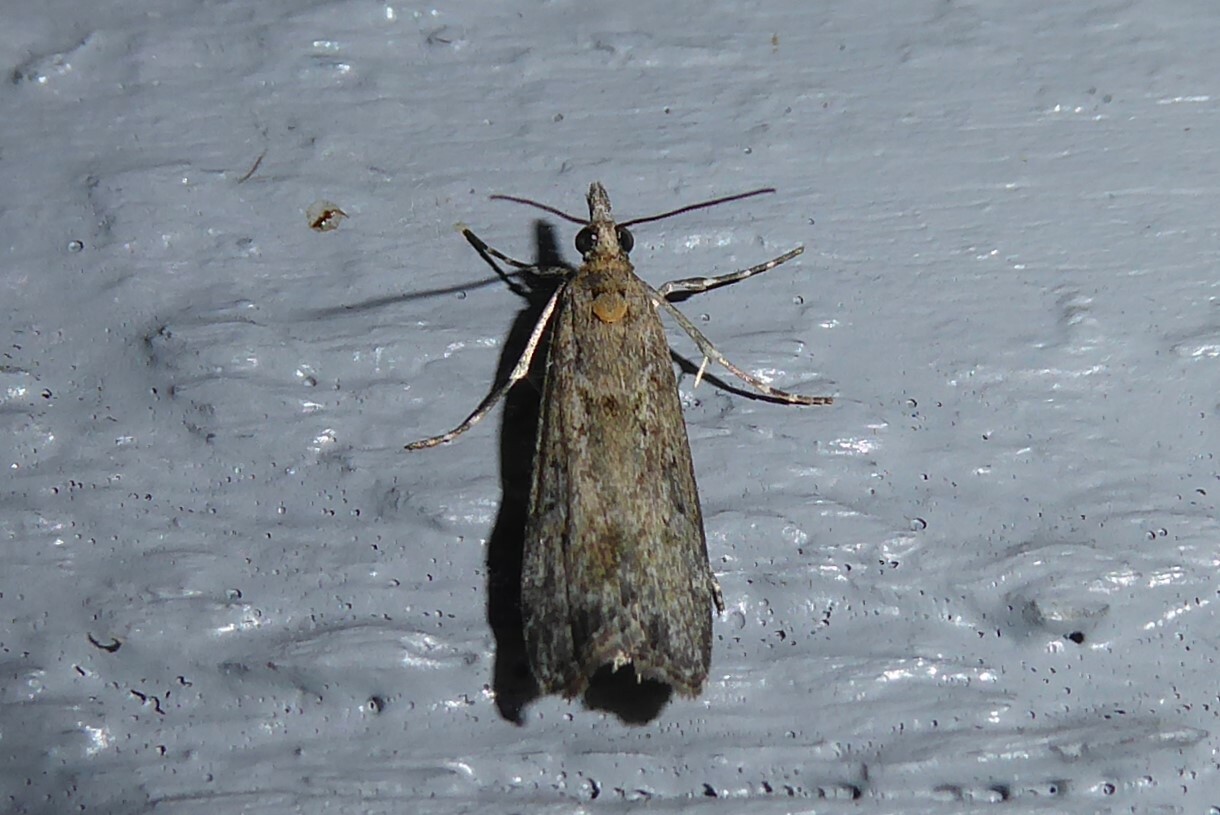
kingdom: Animalia
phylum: Arthropoda
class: Insecta
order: Lepidoptera
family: Crambidae
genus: Eudonia
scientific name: Eudonia leptalea
